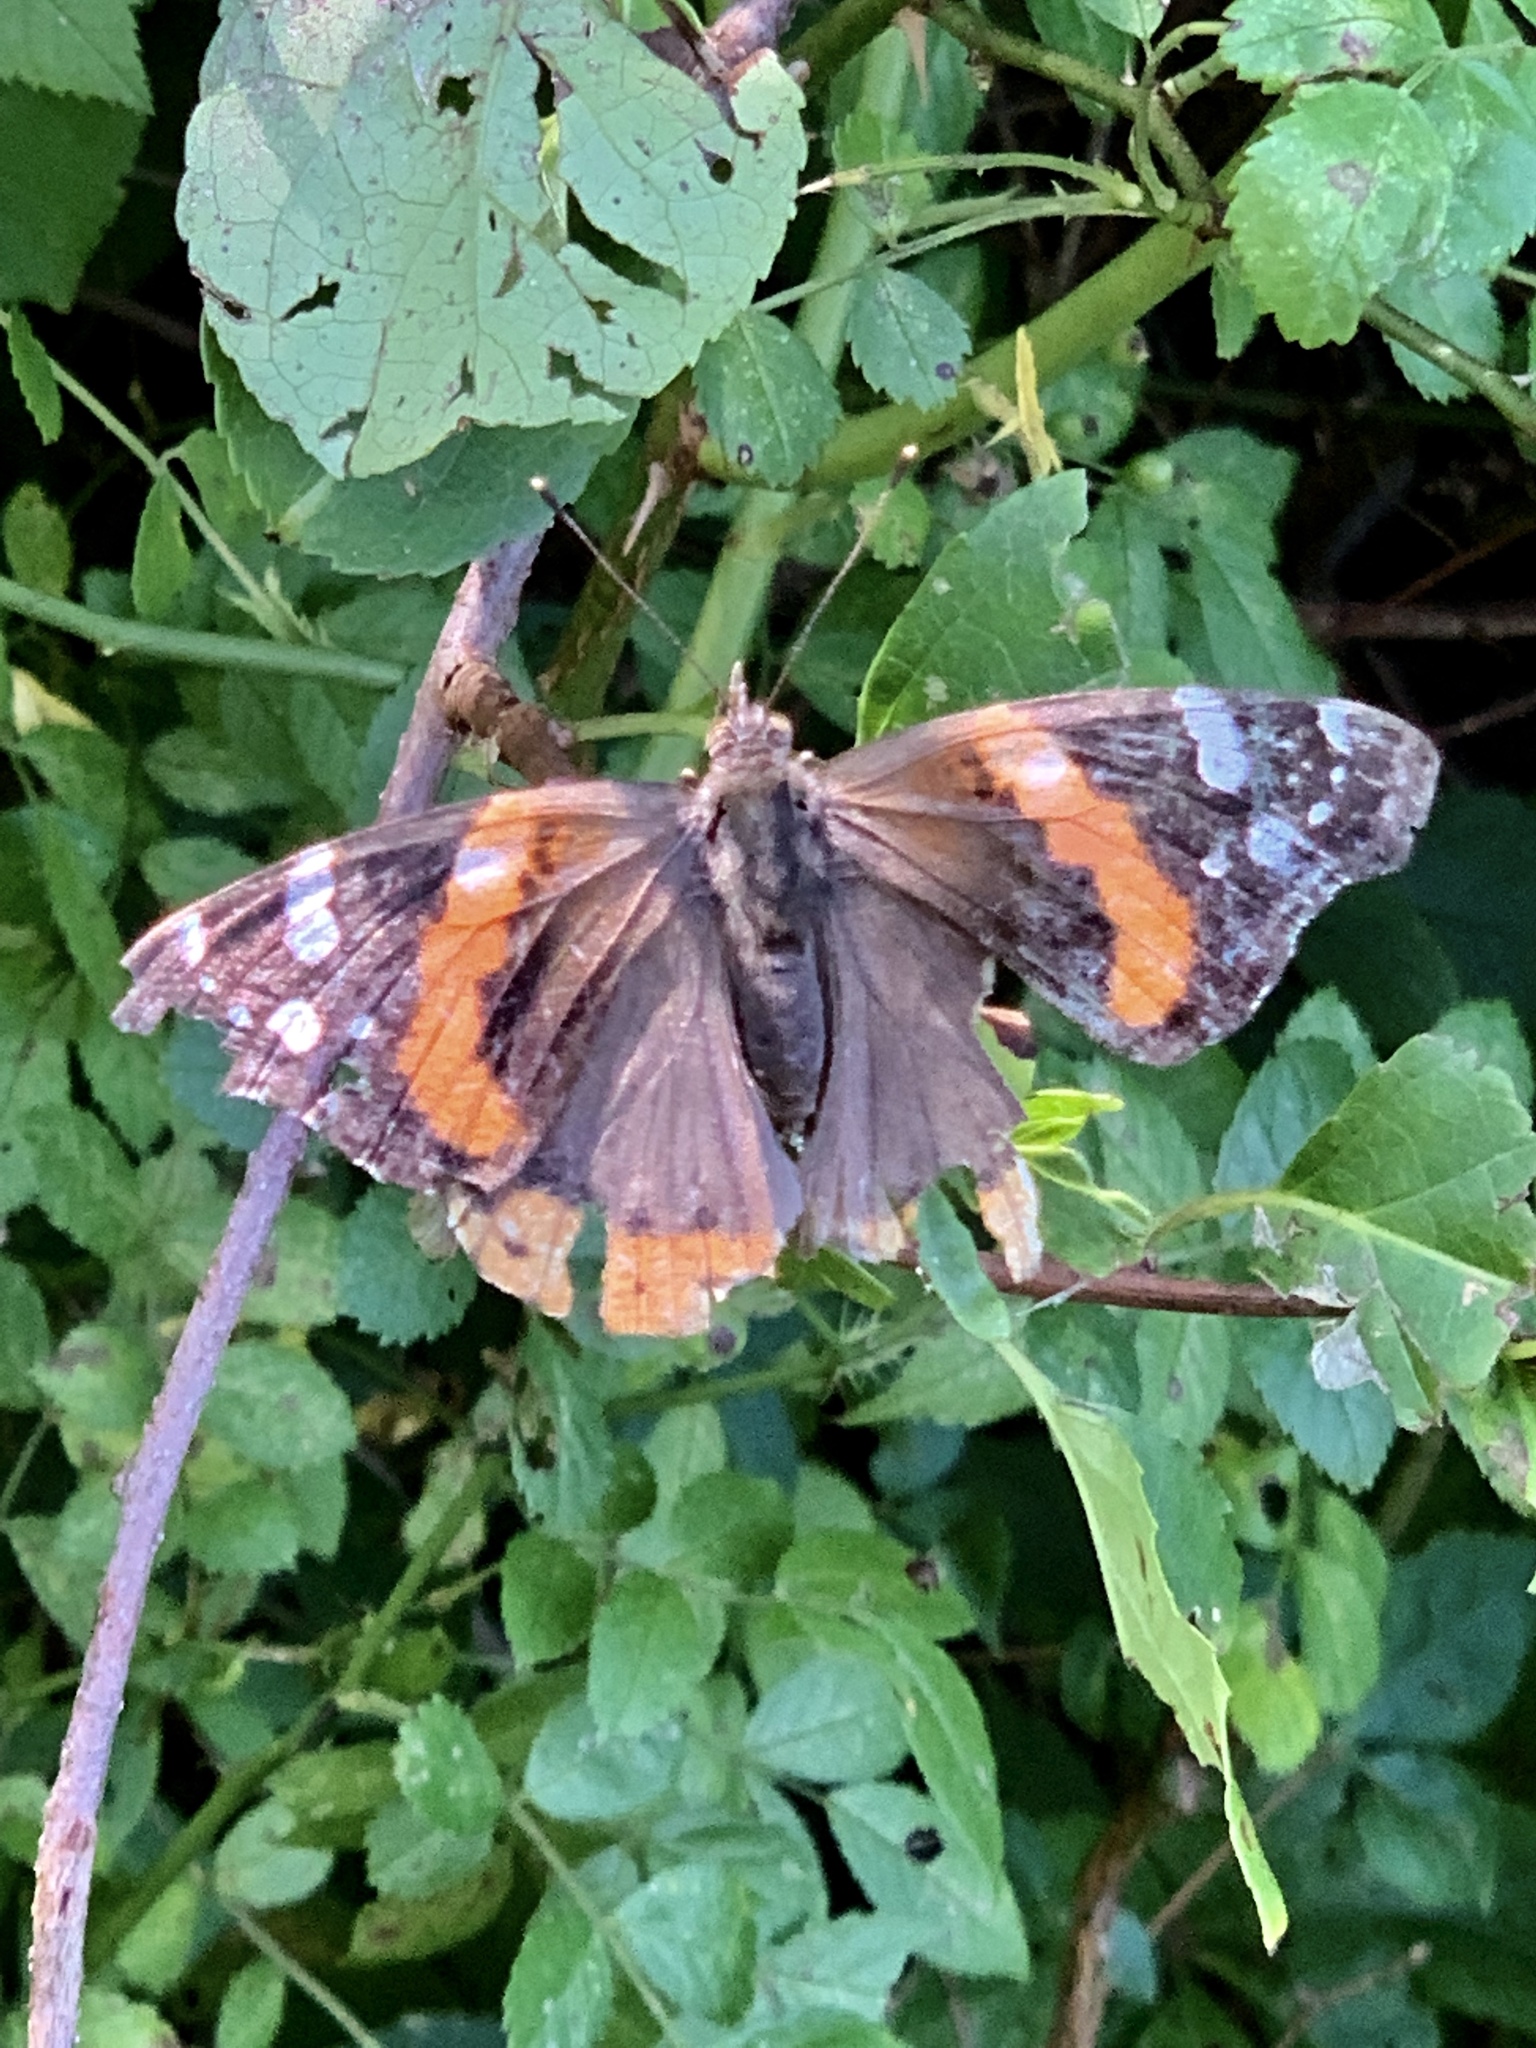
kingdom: Animalia
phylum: Arthropoda
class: Insecta
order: Lepidoptera
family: Nymphalidae
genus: Vanessa
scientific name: Vanessa atalanta
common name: Red admiral
